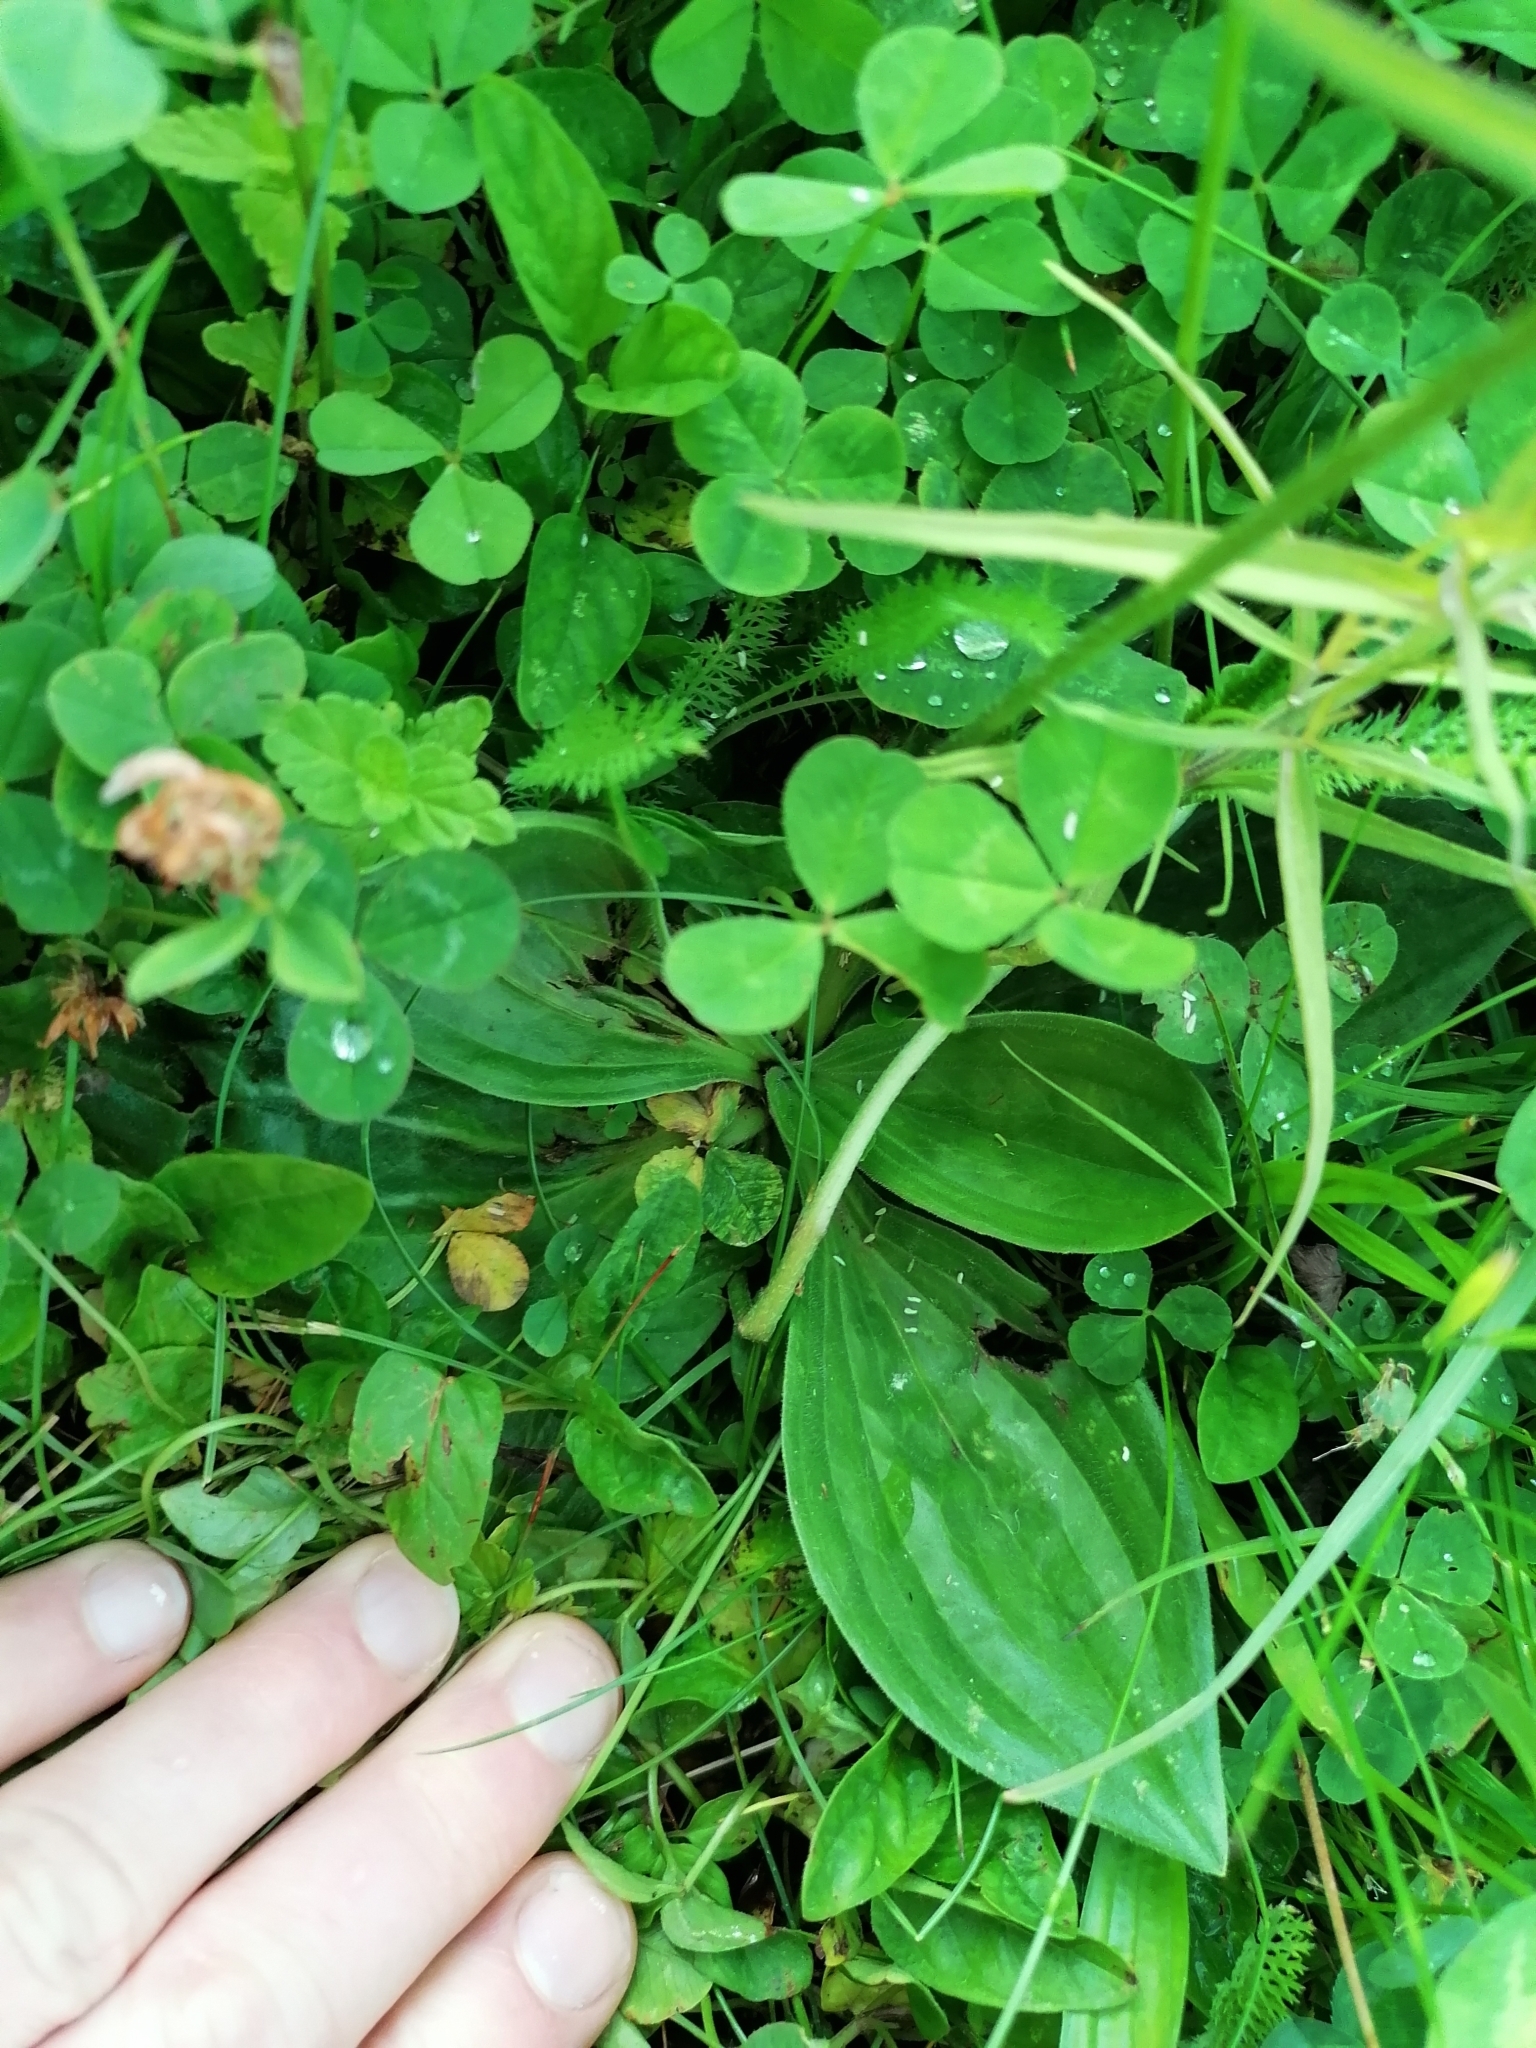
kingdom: Plantae
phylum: Tracheophyta
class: Magnoliopsida
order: Lamiales
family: Plantaginaceae
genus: Plantago
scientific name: Plantago media
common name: Hoary plantain
